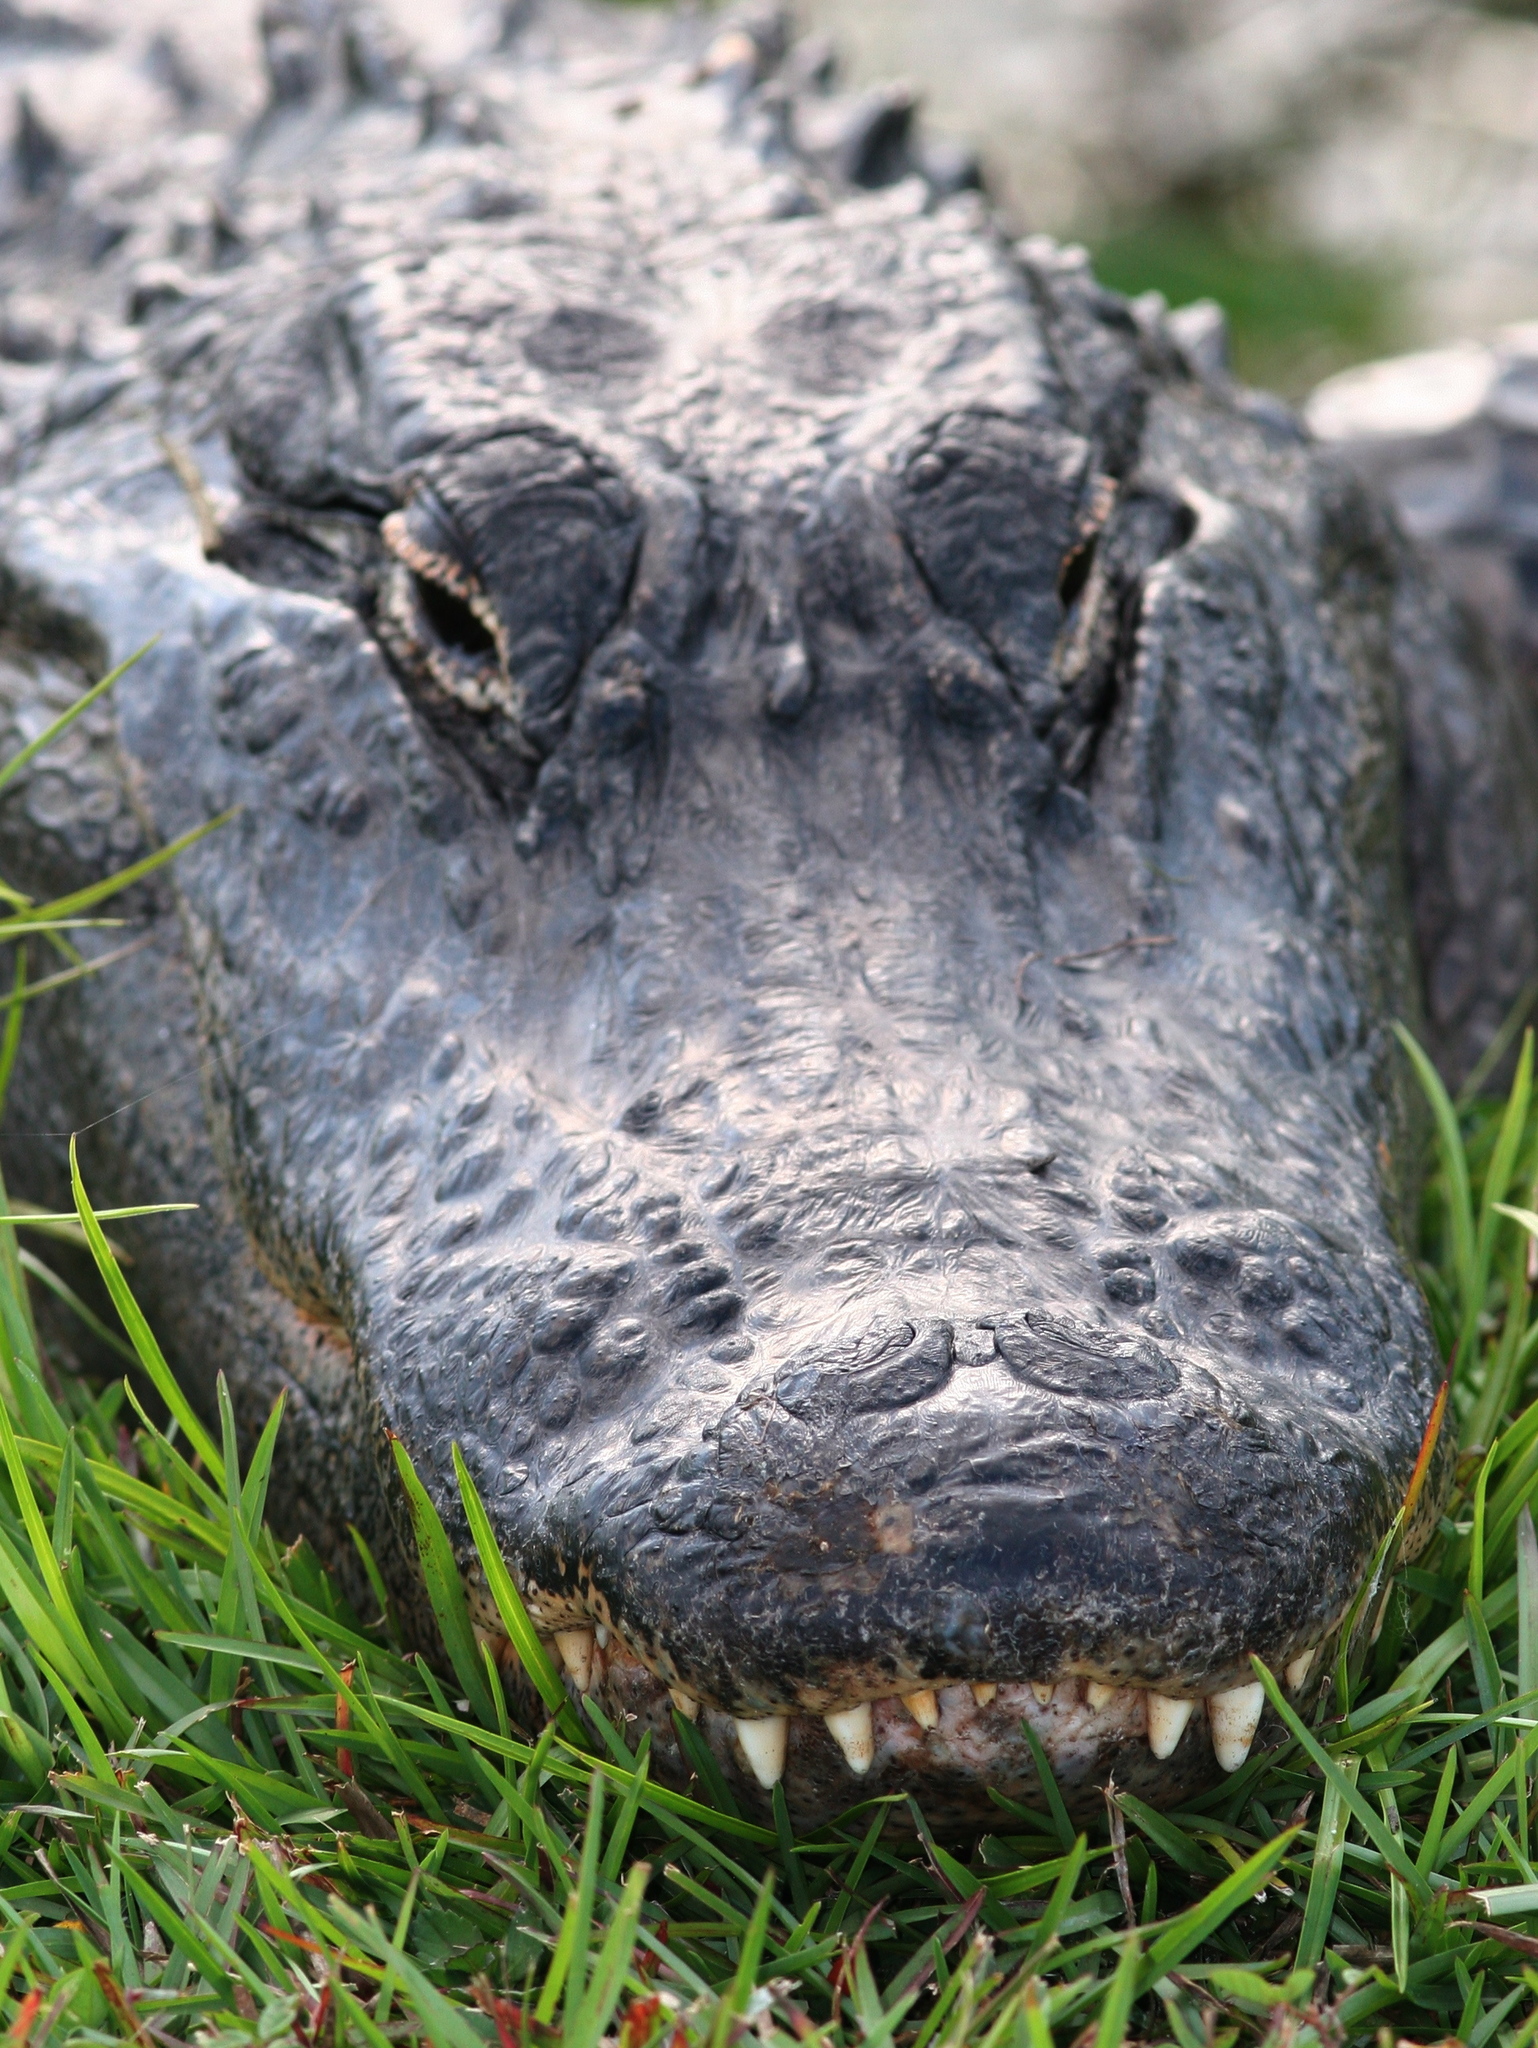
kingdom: Animalia
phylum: Chordata
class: Crocodylia
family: Alligatoridae
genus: Alligator
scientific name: Alligator mississippiensis
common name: American alligator
